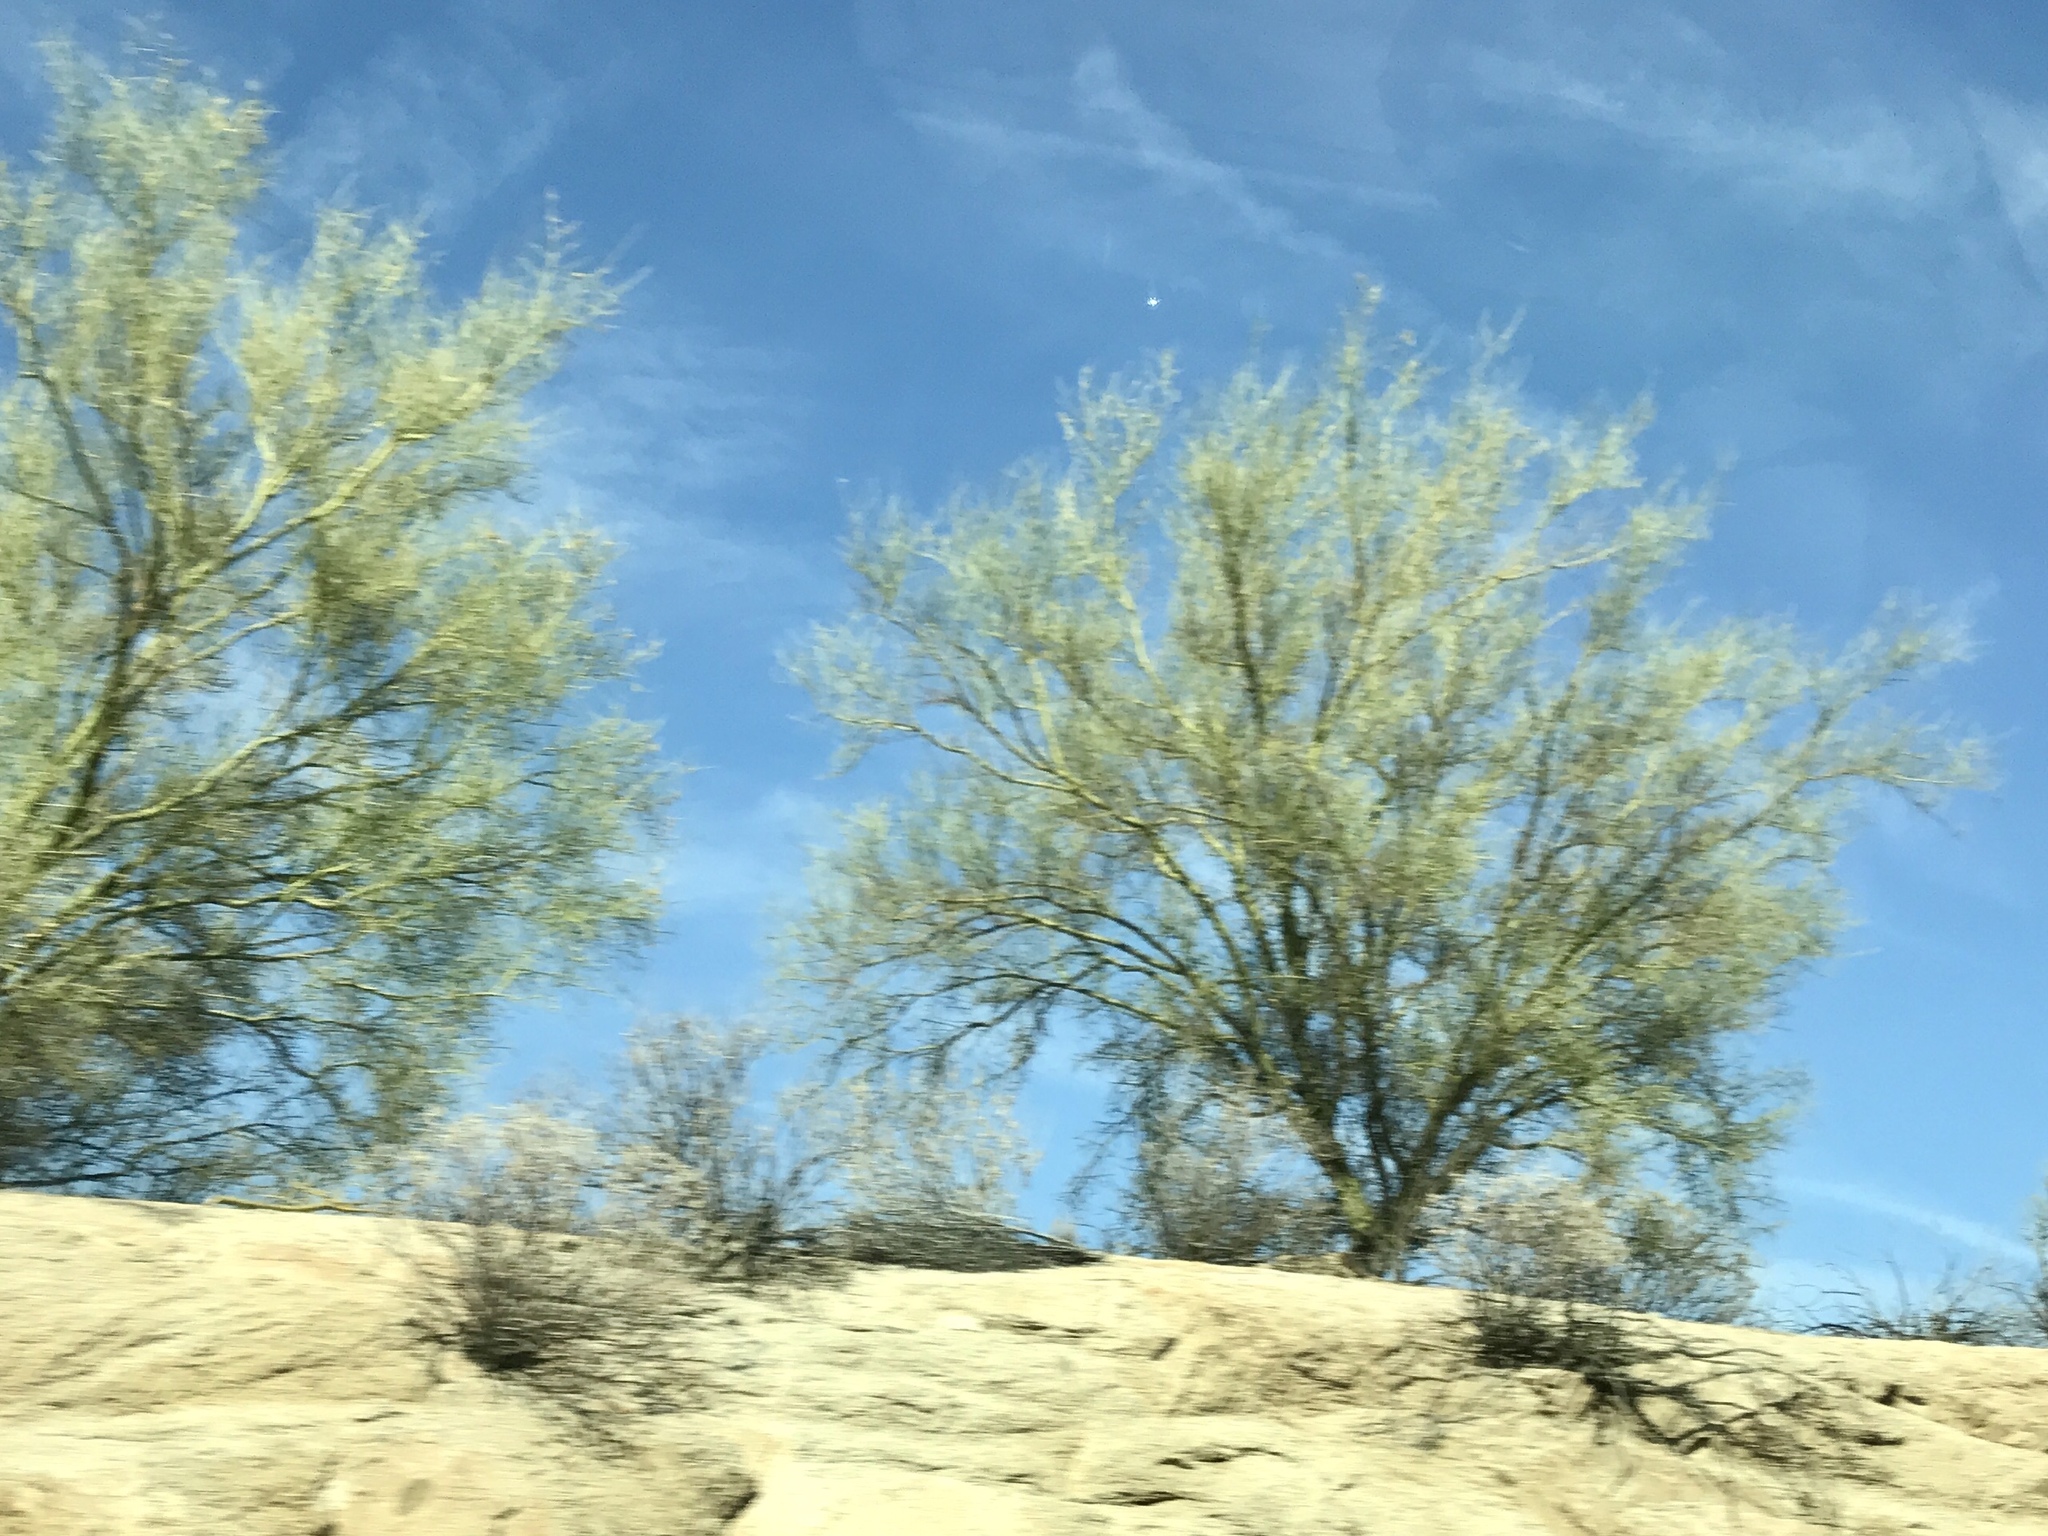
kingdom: Plantae
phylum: Tracheophyta
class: Magnoliopsida
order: Fabales
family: Fabaceae
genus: Parkinsonia
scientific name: Parkinsonia microphylla
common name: Yellow paloverde
